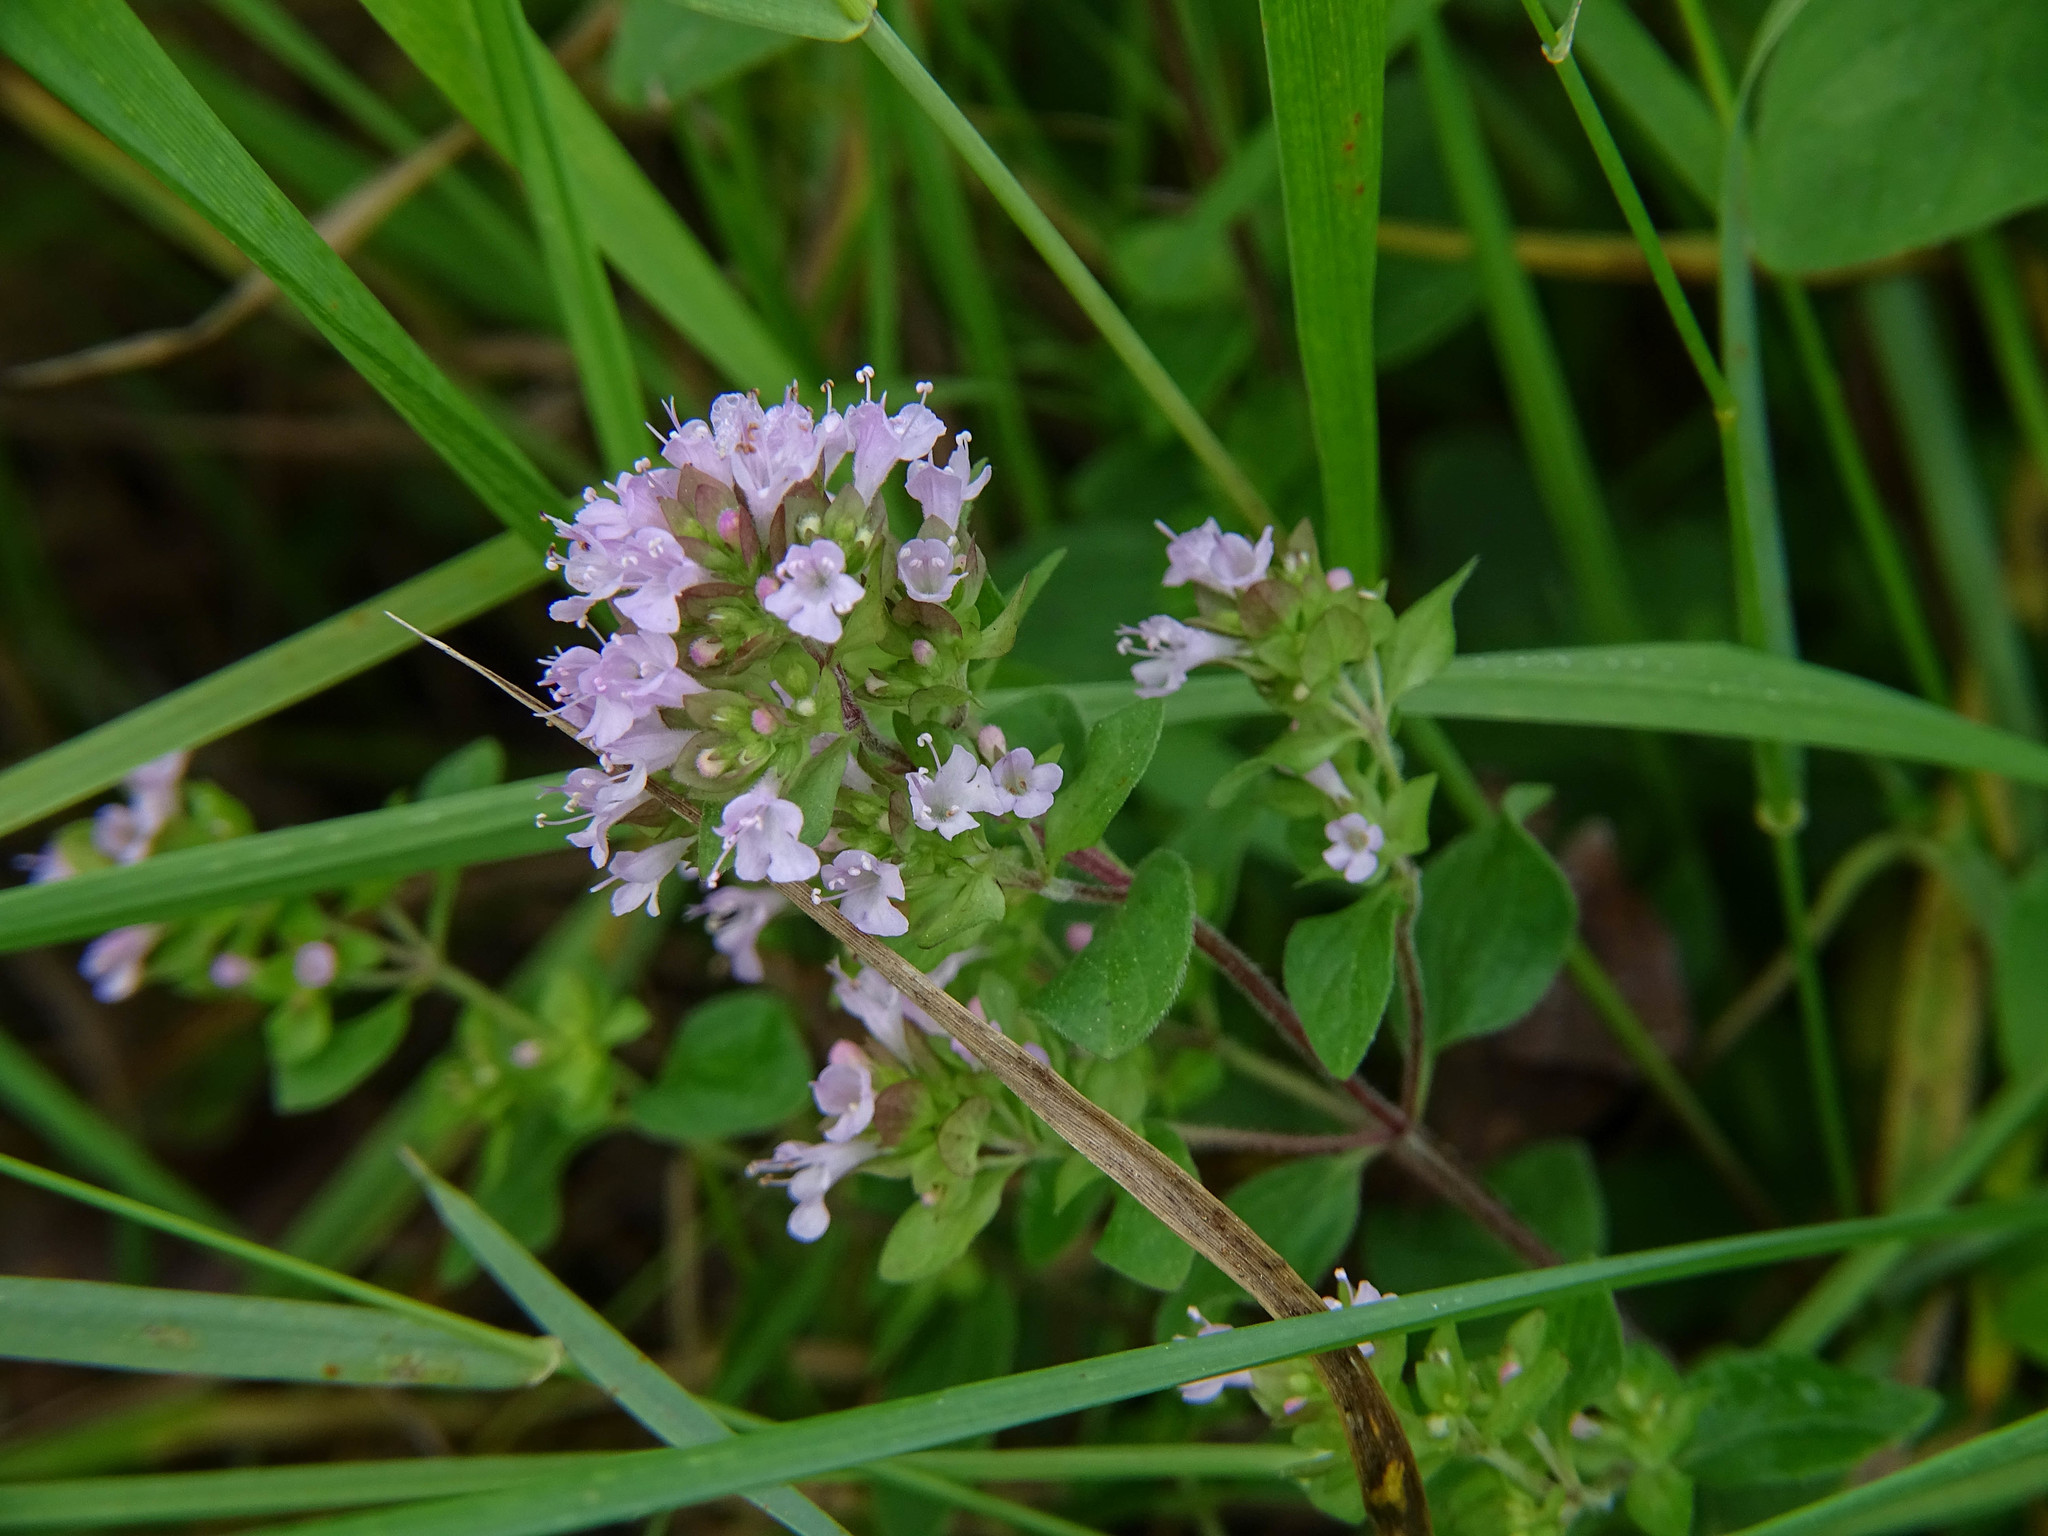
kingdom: Plantae
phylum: Tracheophyta
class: Magnoliopsida
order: Lamiales
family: Lamiaceae
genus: Origanum
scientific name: Origanum vulgare
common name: Wild marjoram
